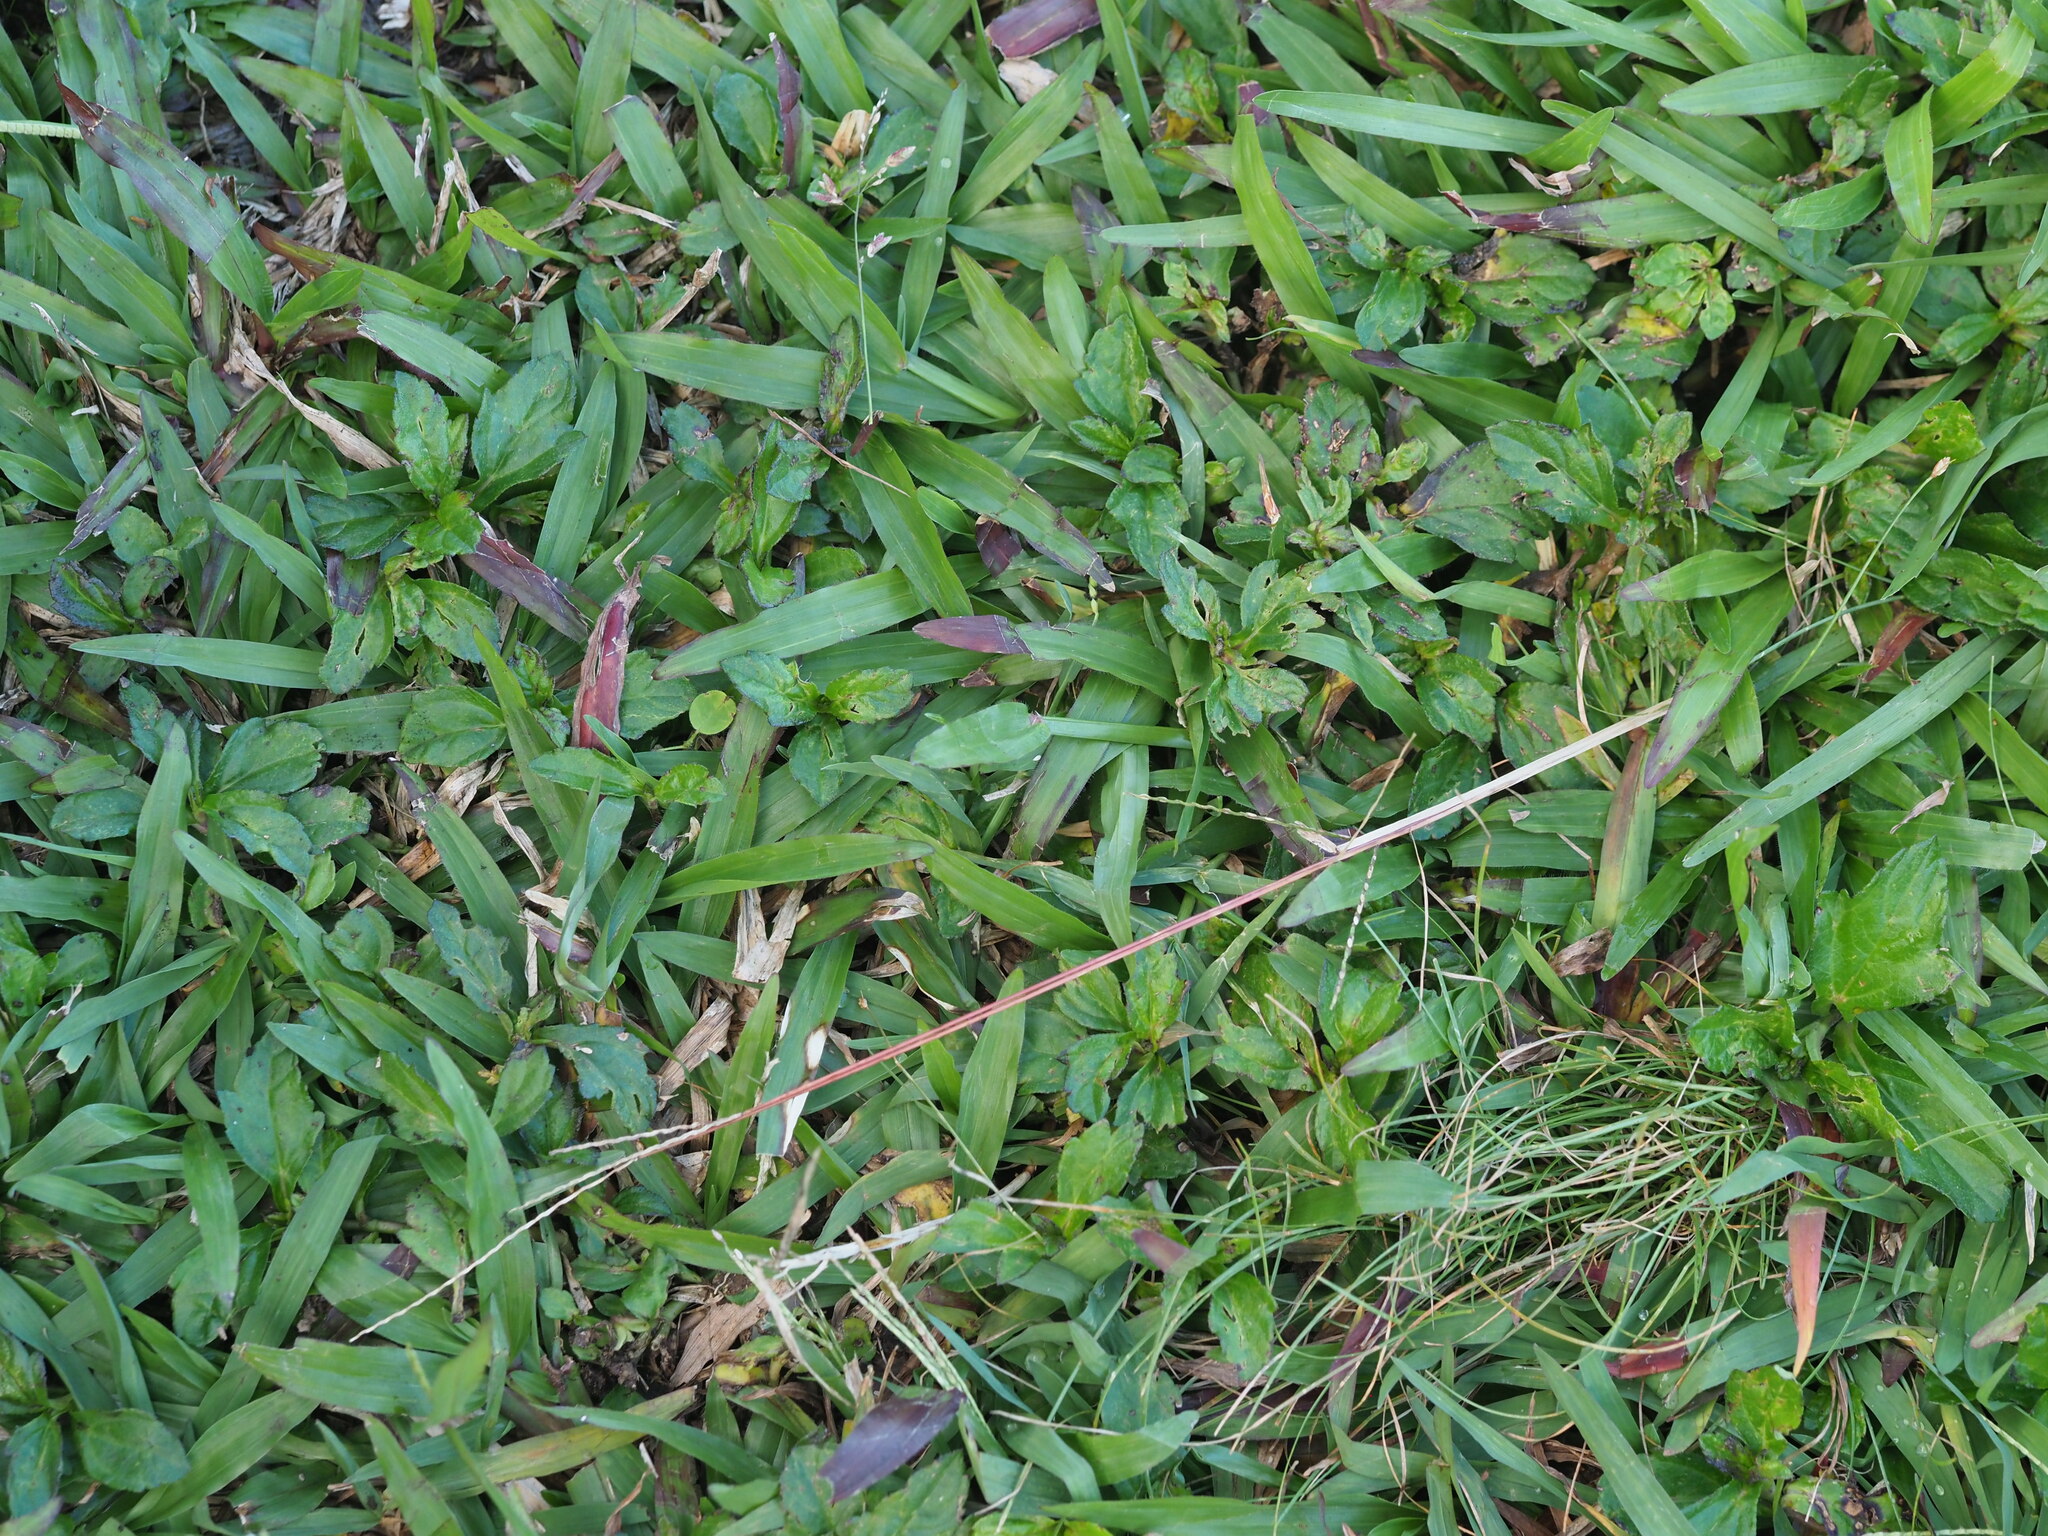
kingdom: Plantae
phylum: Tracheophyta
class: Liliopsida
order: Poales
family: Poaceae
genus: Axonopus
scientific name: Axonopus compressus
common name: American carpet grass
